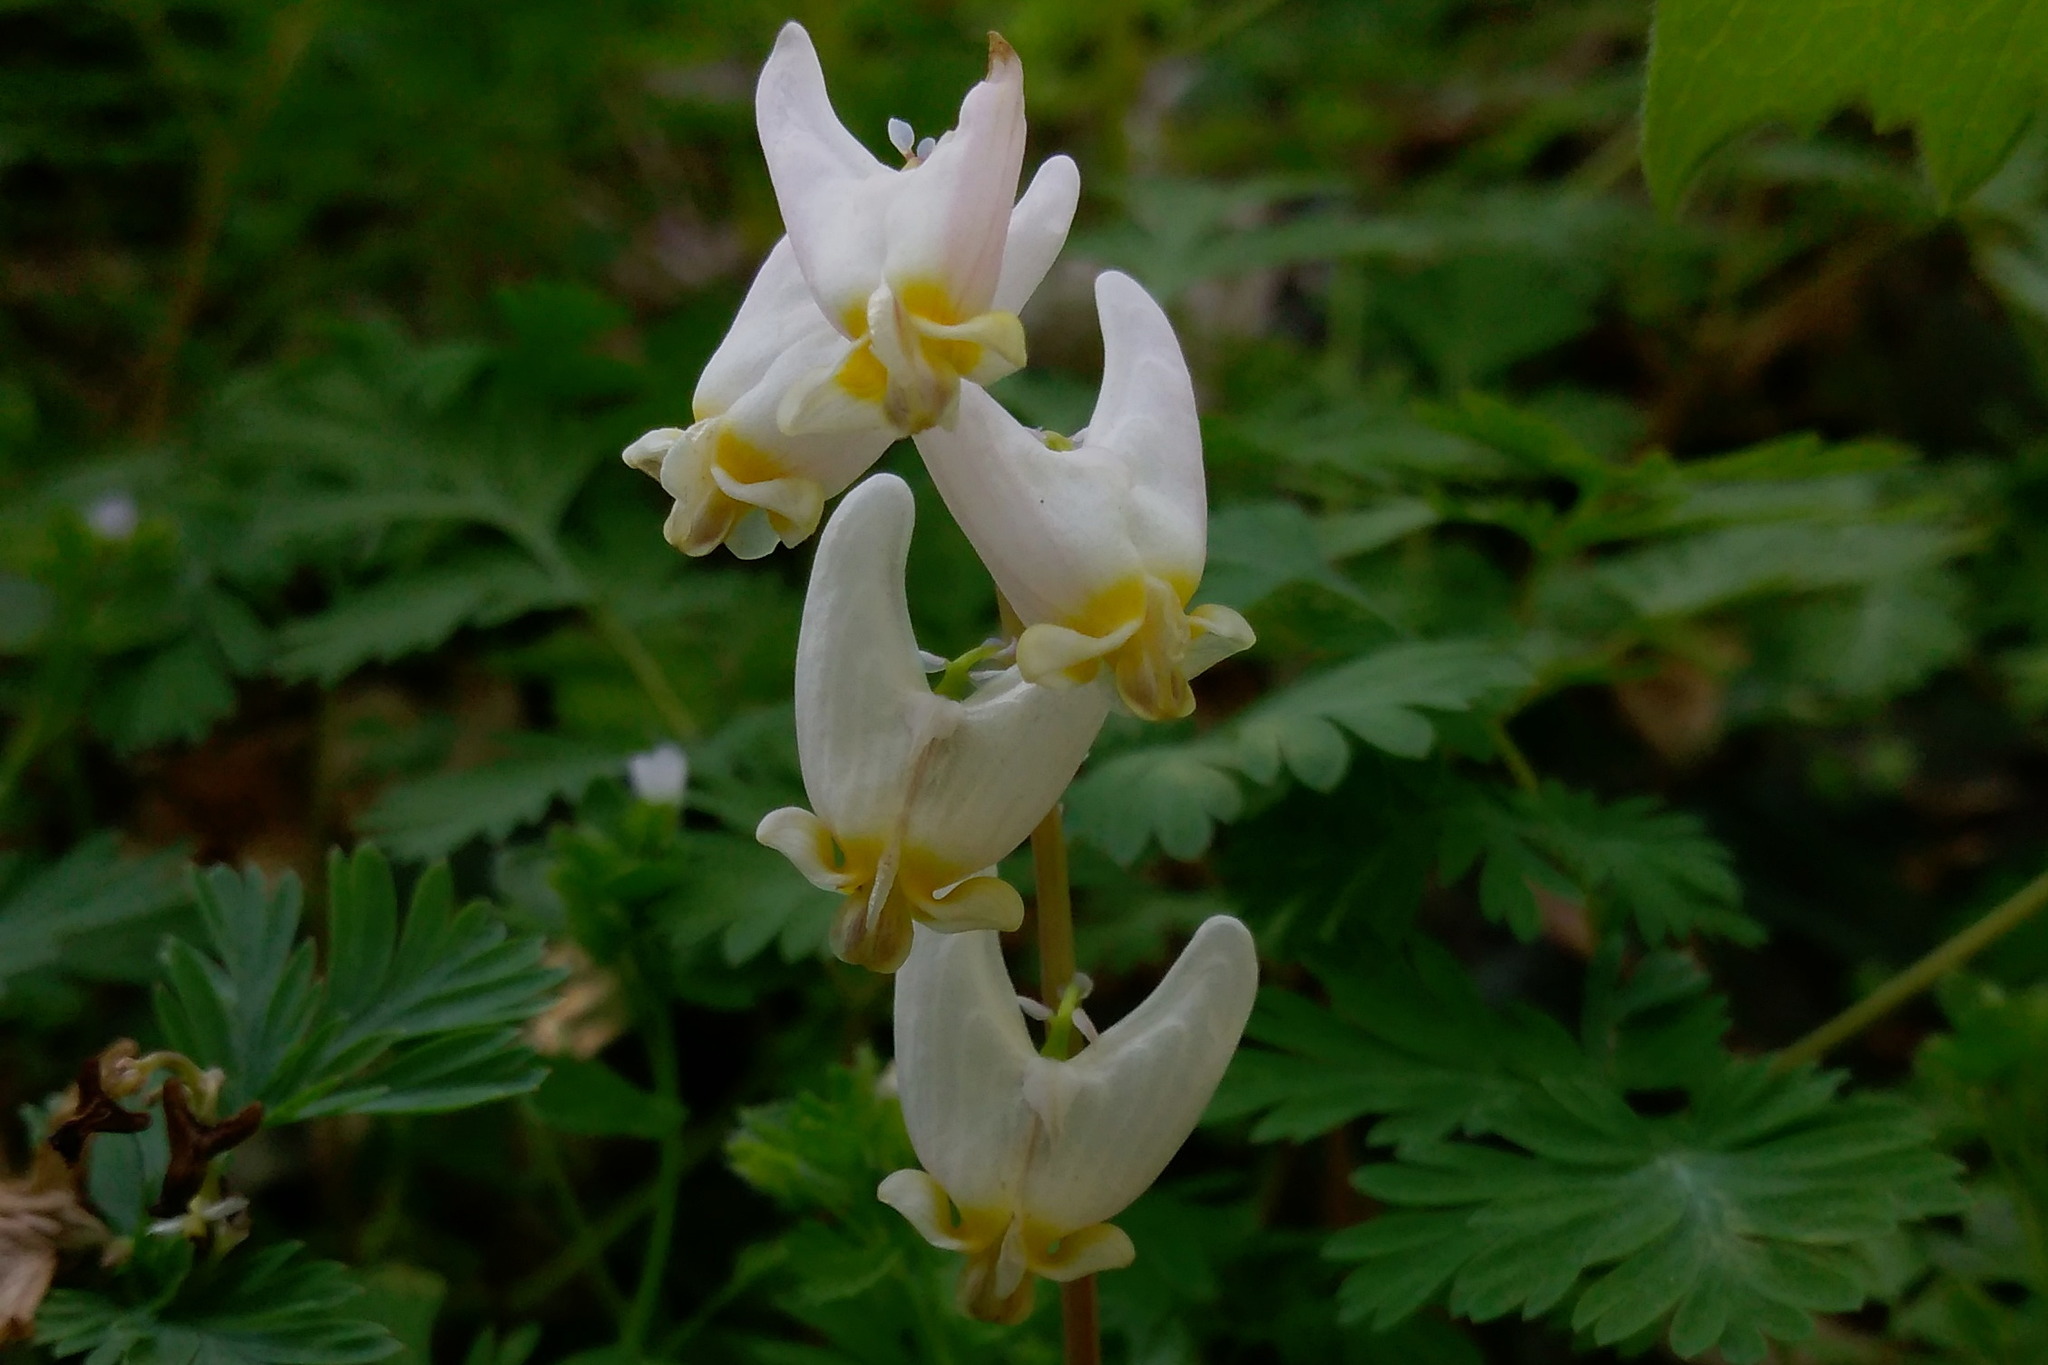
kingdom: Plantae
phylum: Tracheophyta
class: Magnoliopsida
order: Ranunculales
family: Papaveraceae
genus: Dicentra
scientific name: Dicentra cucullaria
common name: Dutchman's breeches
